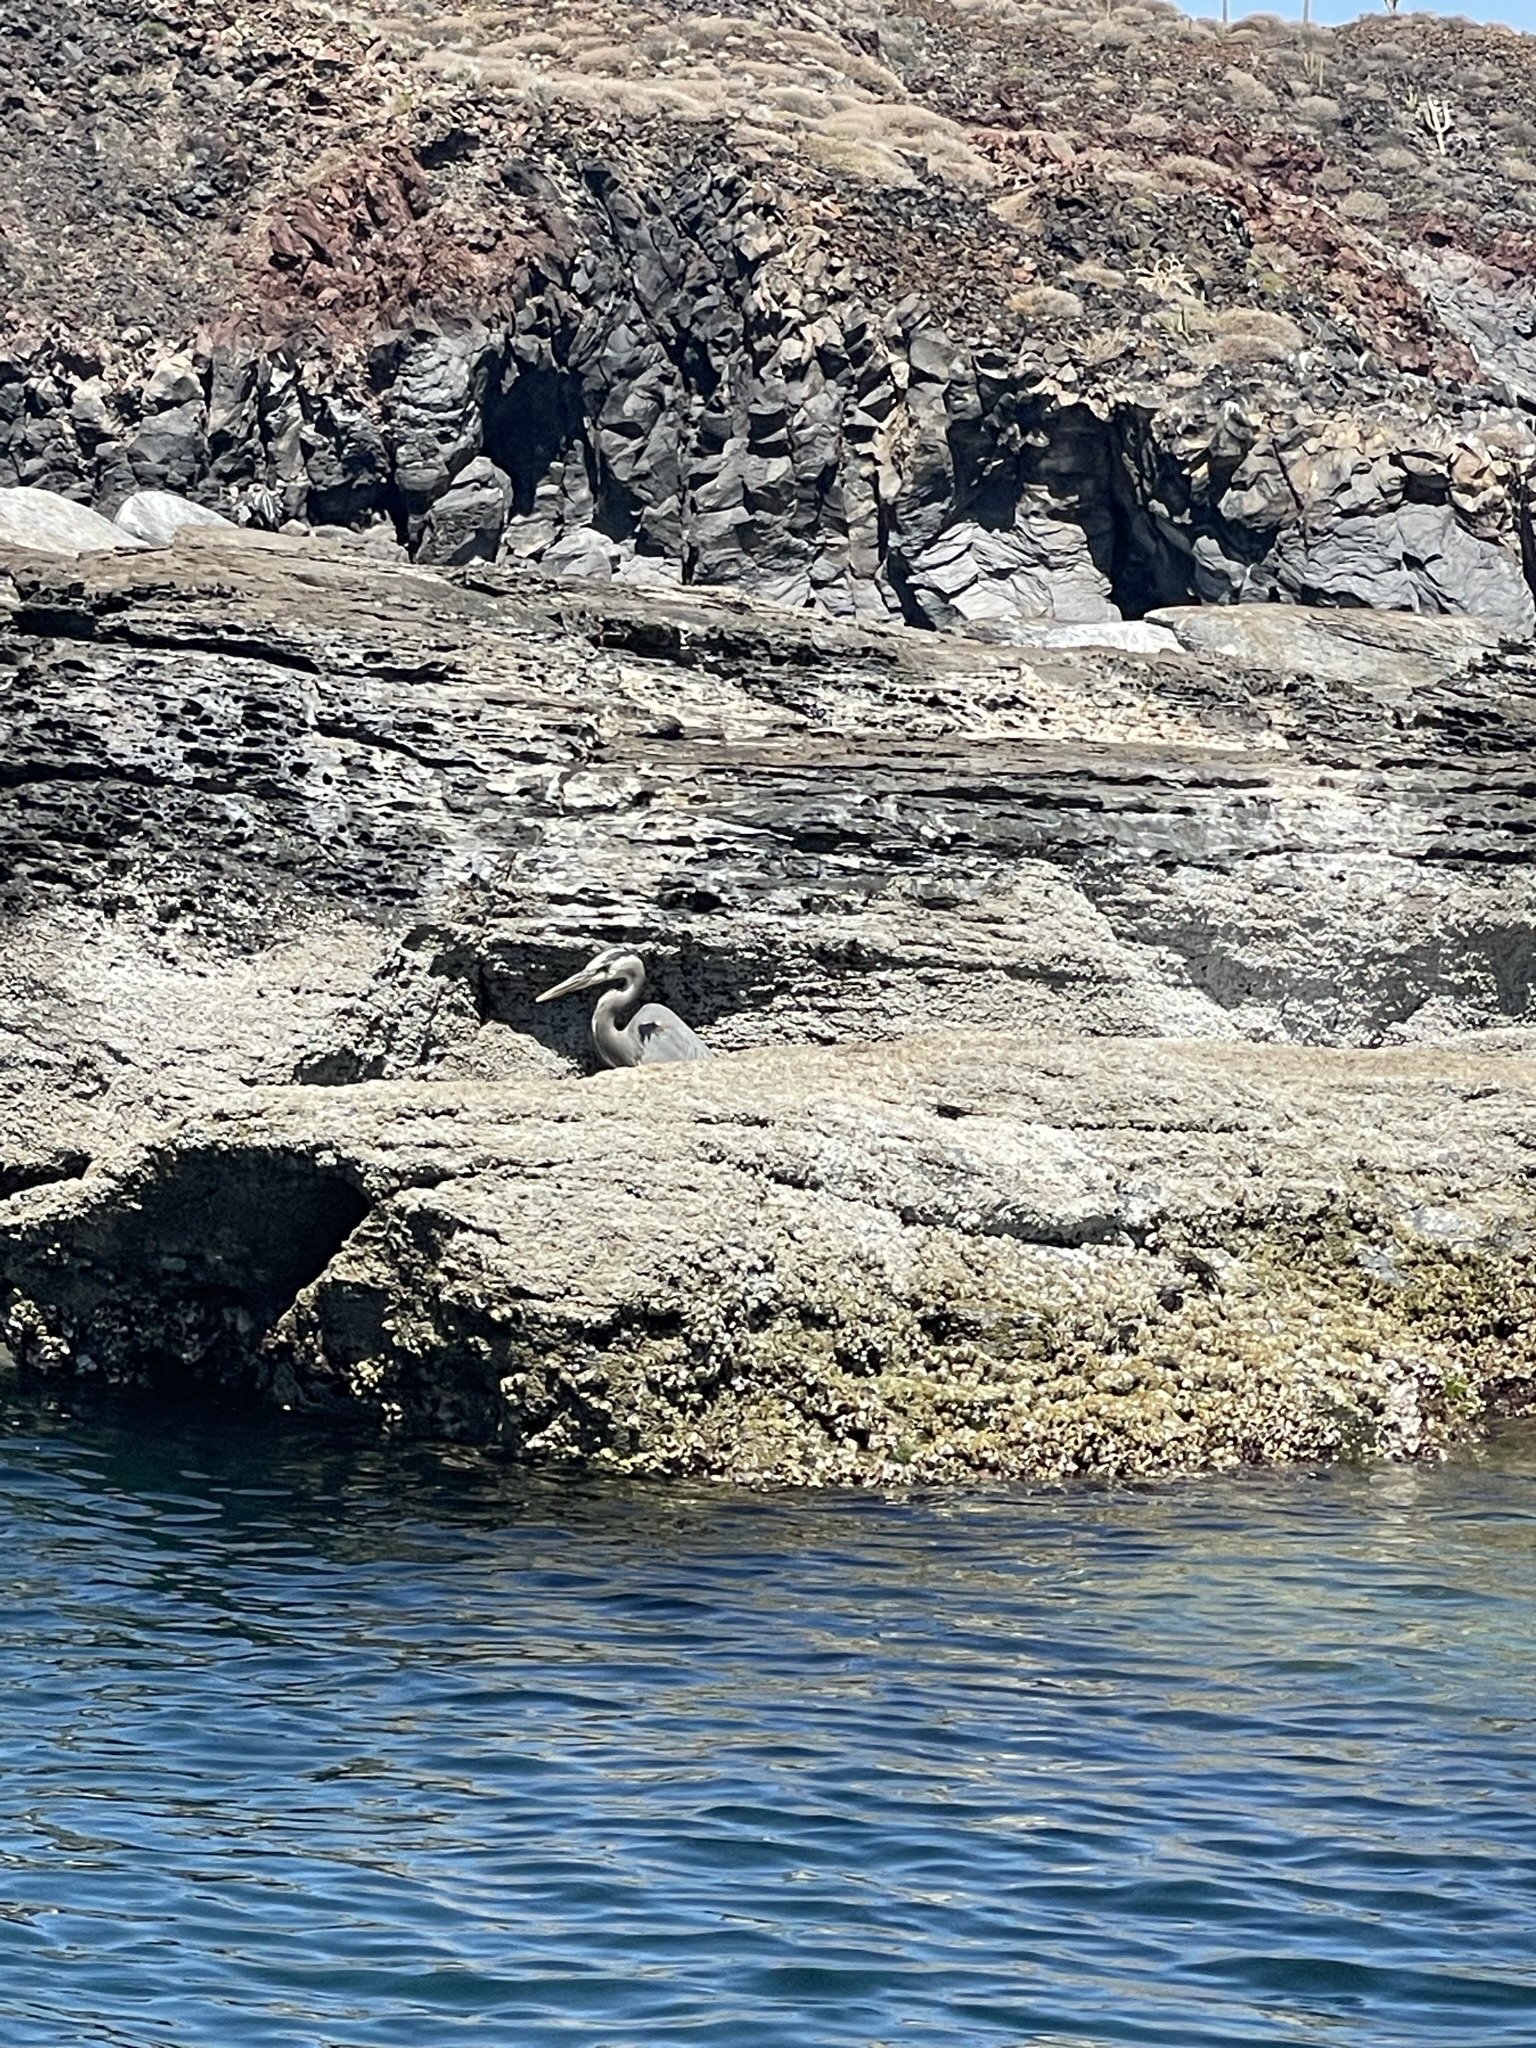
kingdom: Animalia
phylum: Chordata
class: Aves
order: Pelecaniformes
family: Ardeidae
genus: Ardea
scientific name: Ardea herodias
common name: Great blue heron
